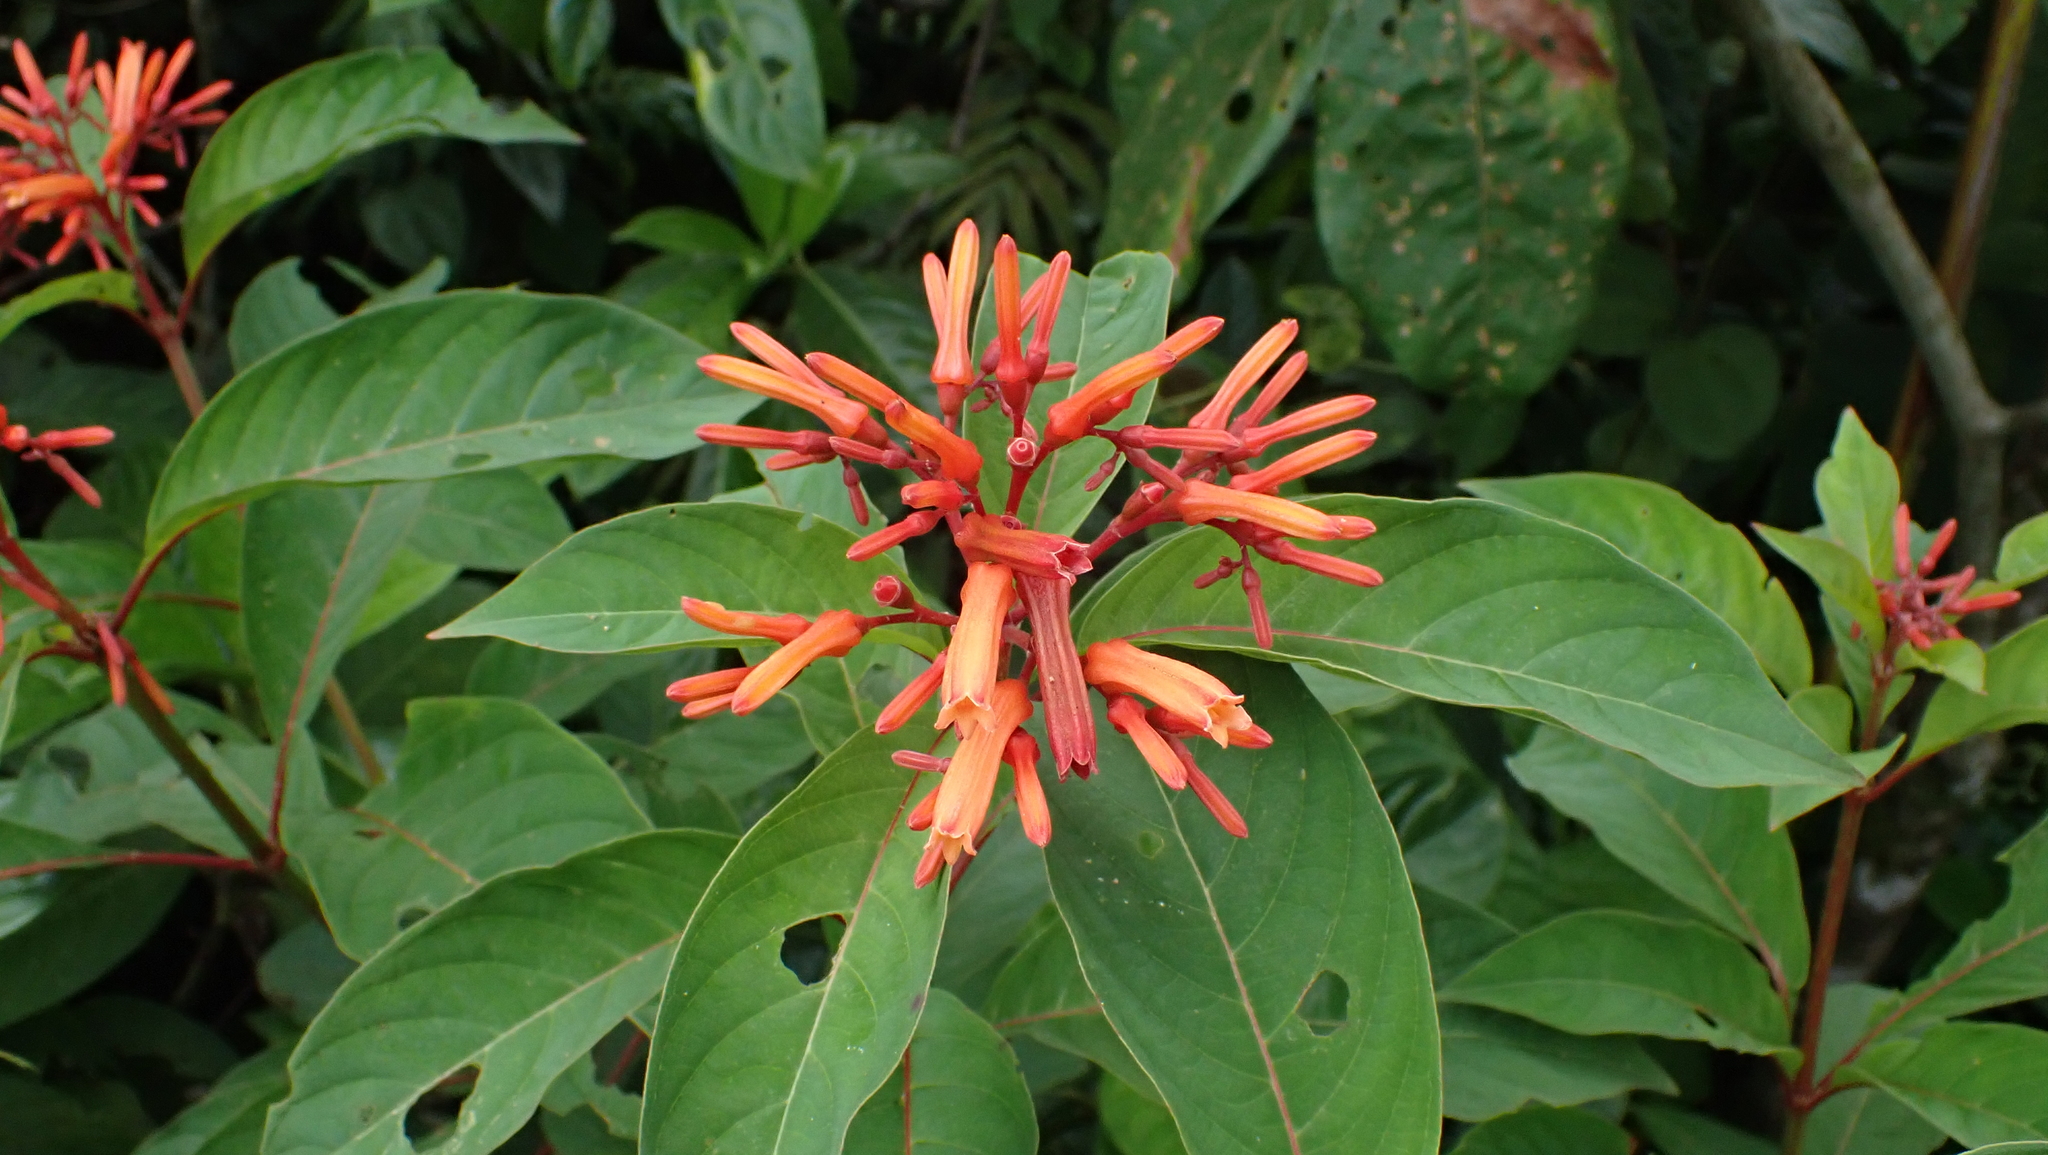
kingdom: Plantae
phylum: Tracheophyta
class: Magnoliopsida
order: Gentianales
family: Rubiaceae
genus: Hamelia
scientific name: Hamelia patens
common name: Redhead
